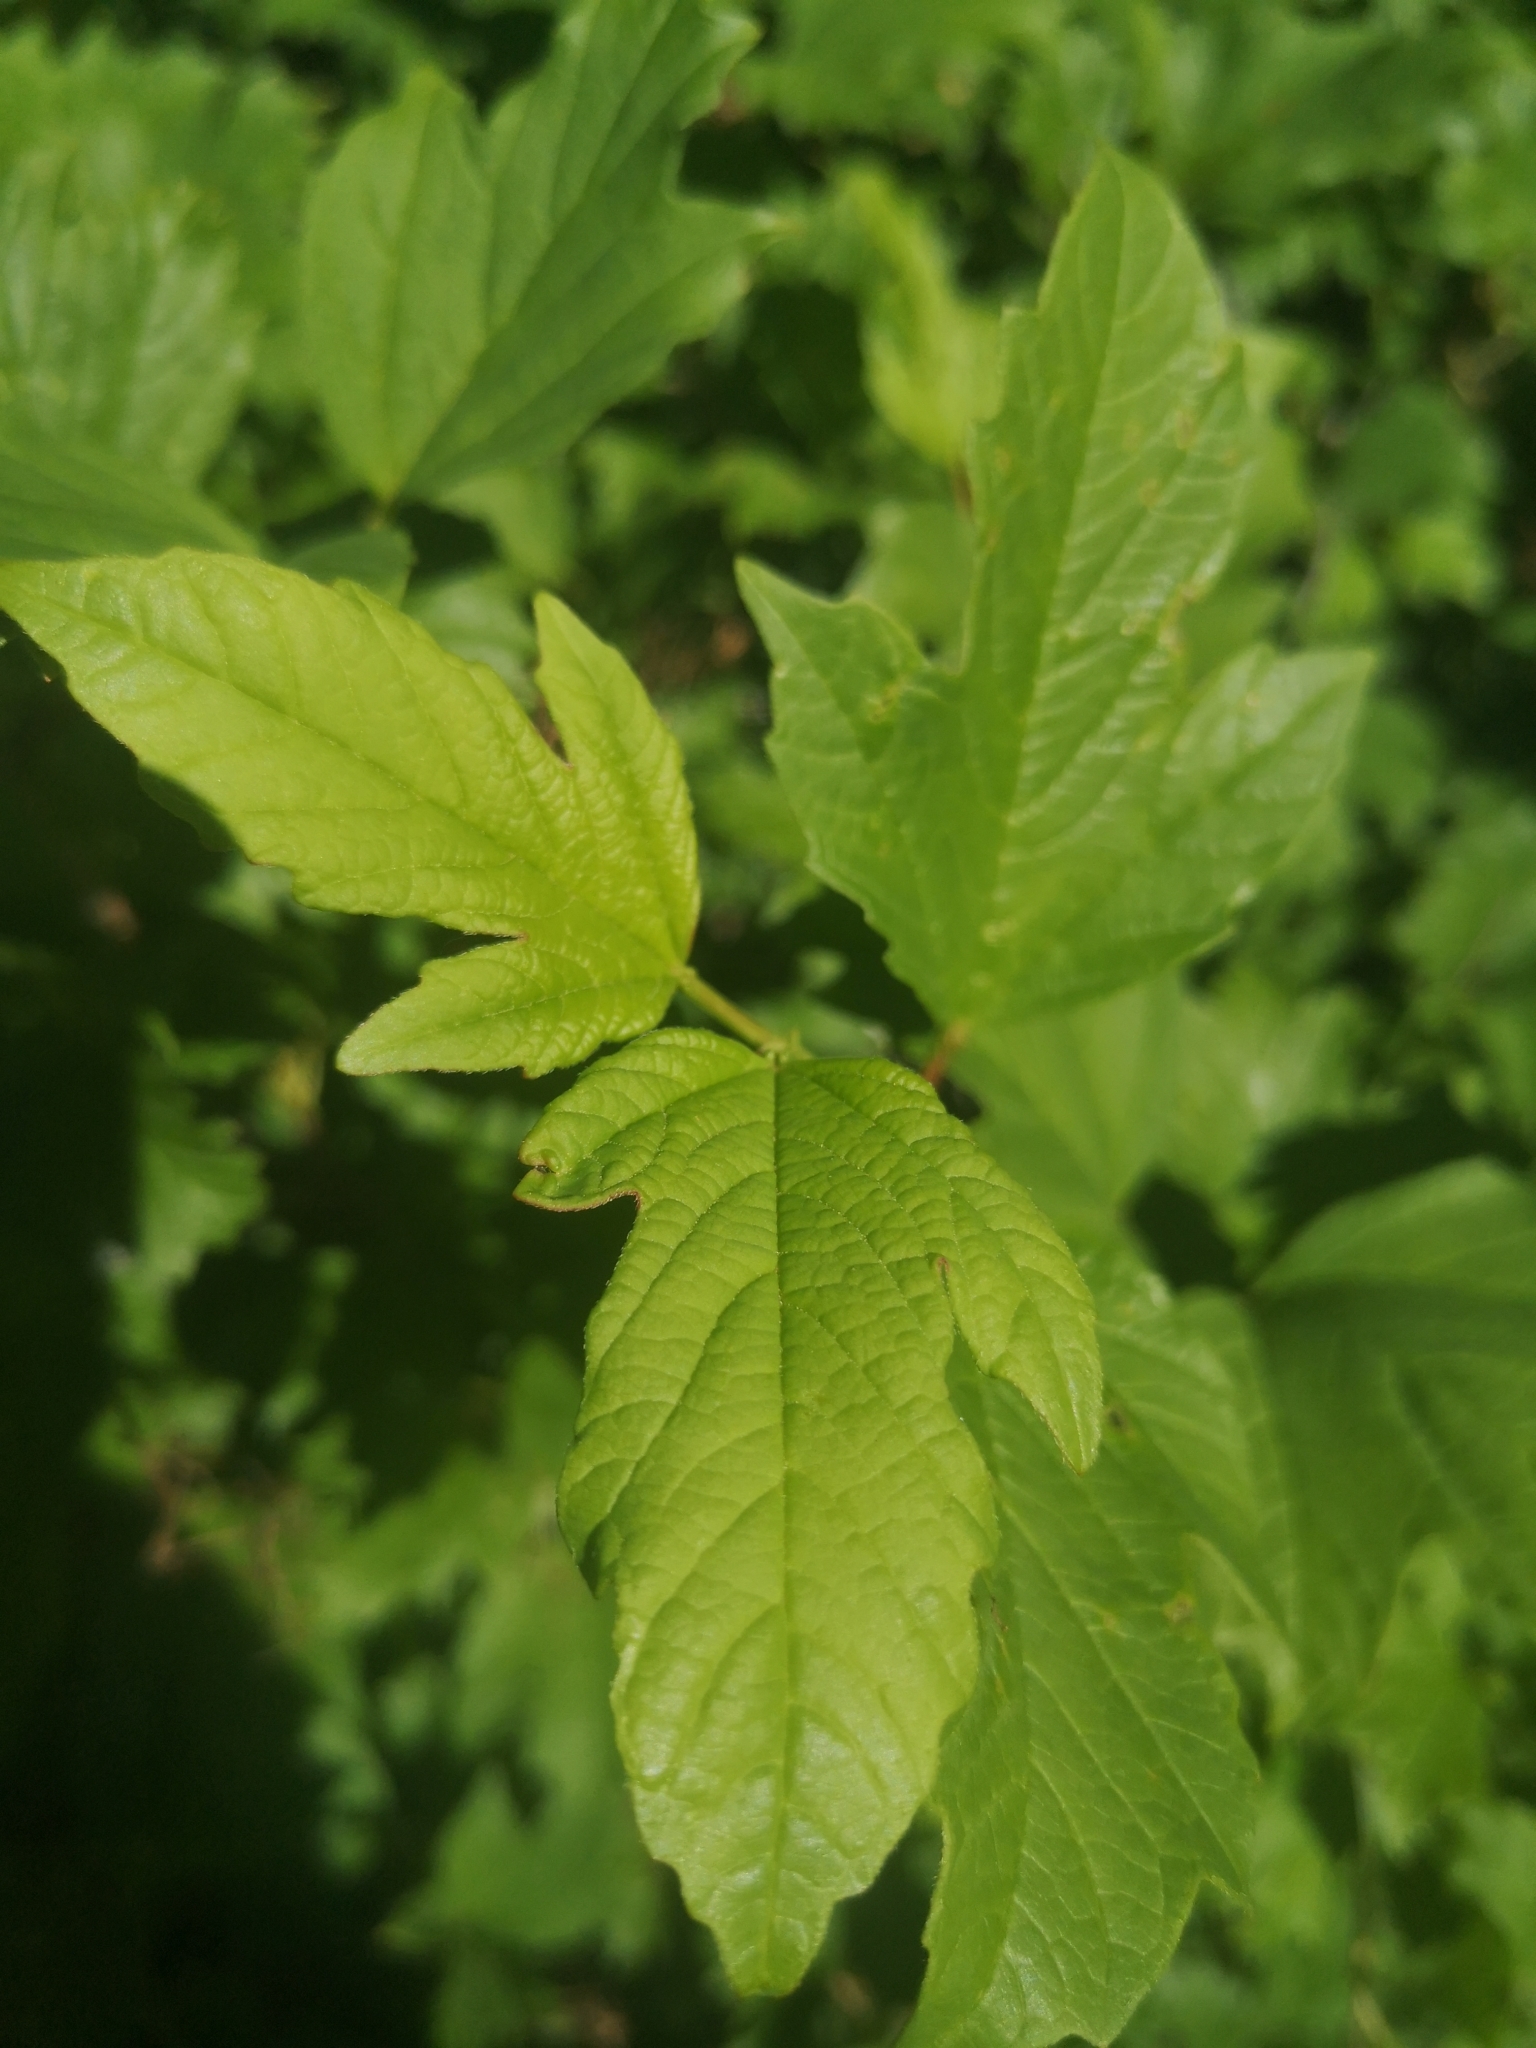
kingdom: Plantae
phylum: Tracheophyta
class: Magnoliopsida
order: Dipsacales
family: Viburnaceae
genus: Viburnum
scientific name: Viburnum opulus
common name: Guelder-rose
